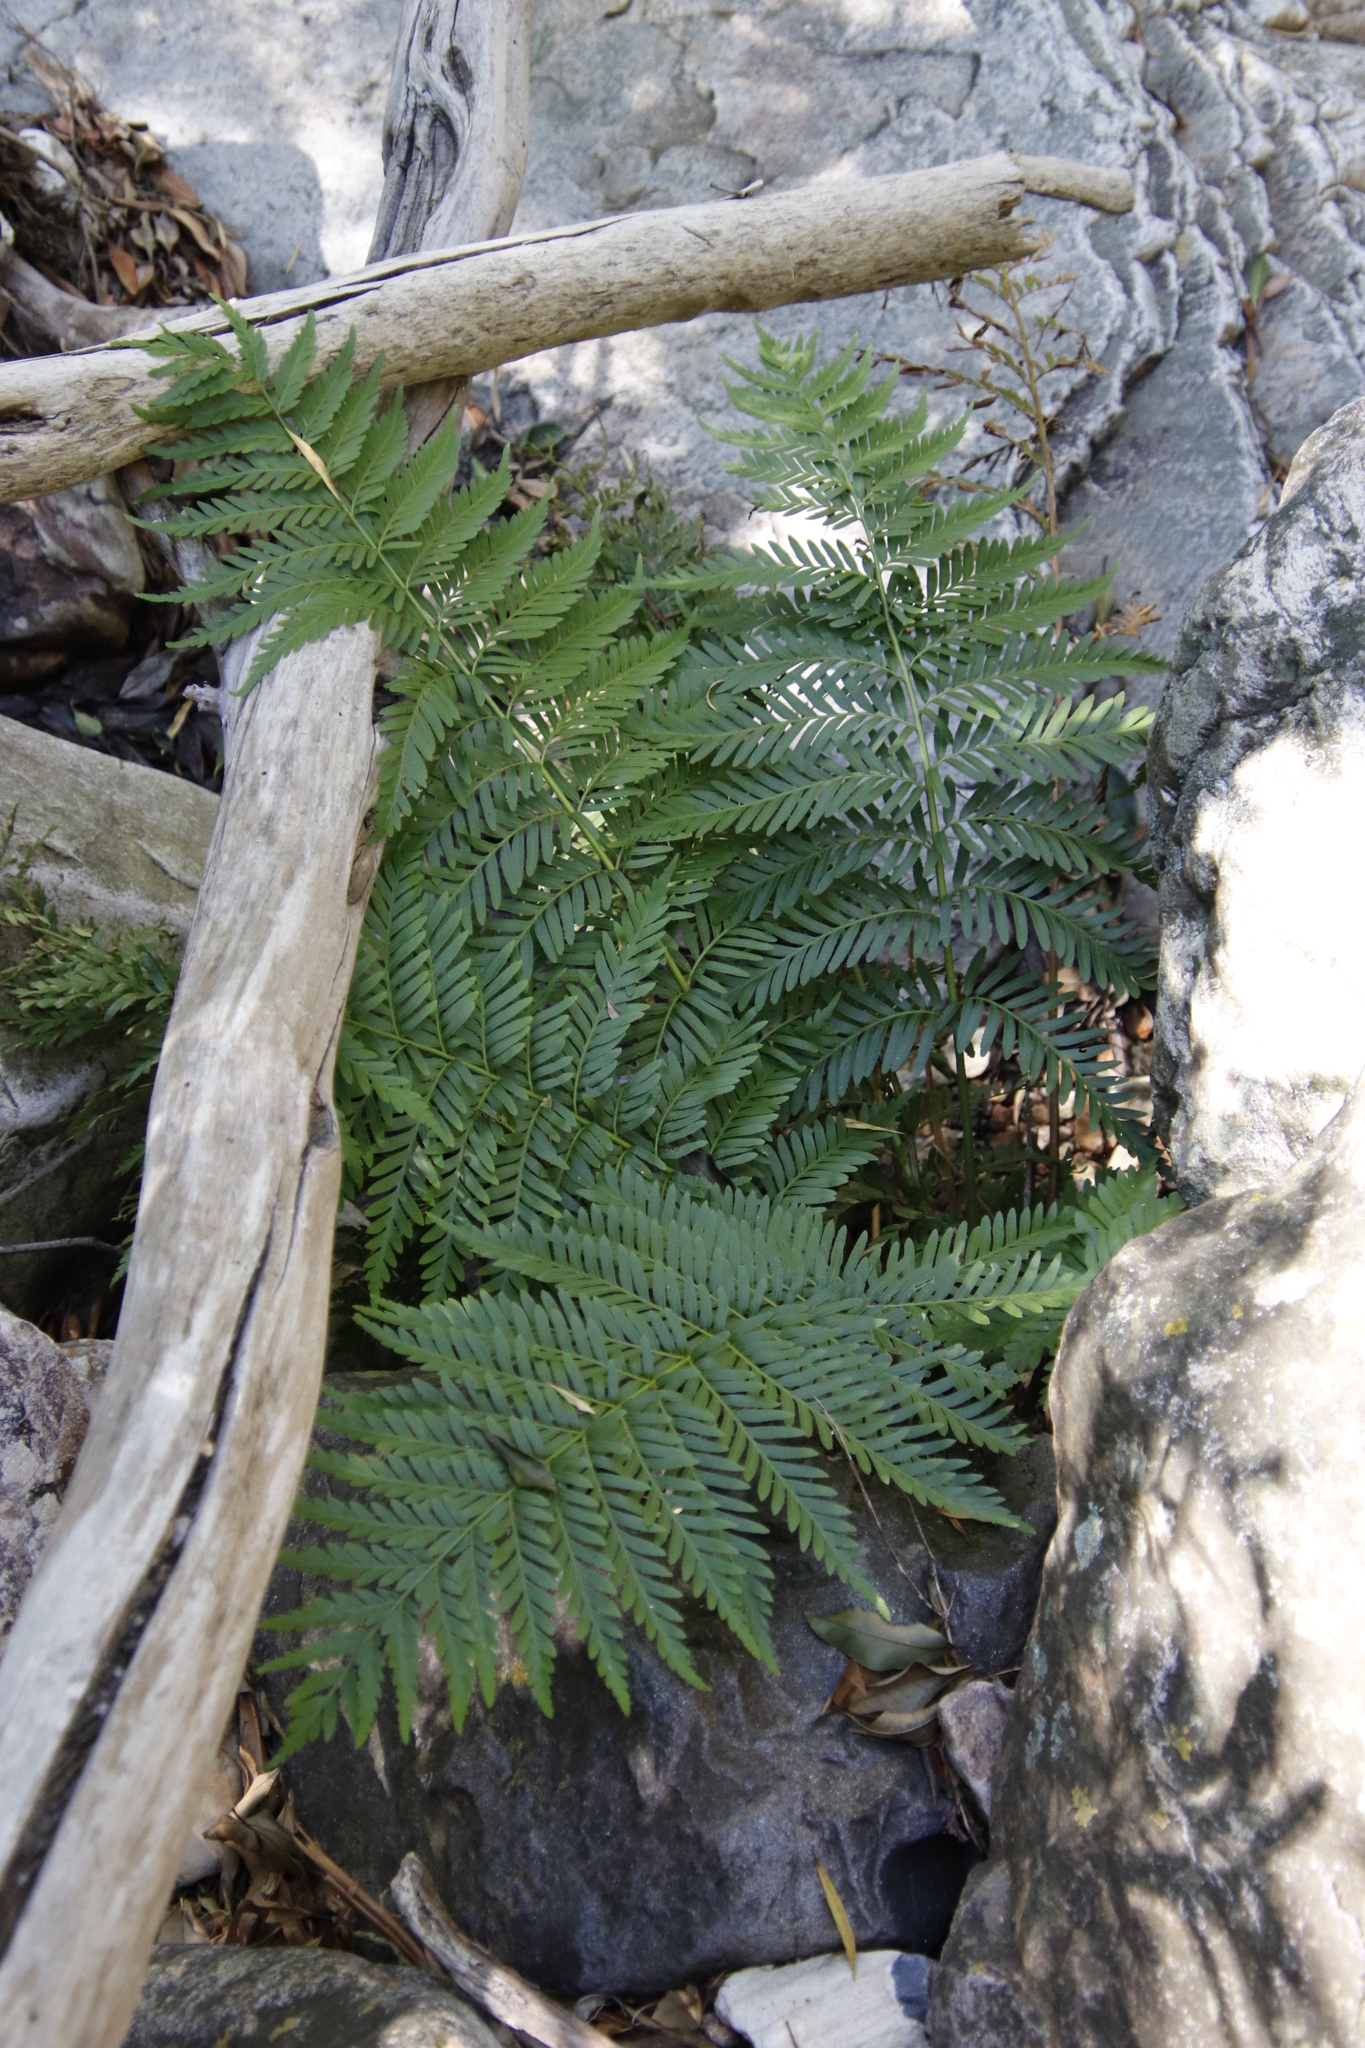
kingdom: Plantae
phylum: Tracheophyta
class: Polypodiopsida
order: Osmundales
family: Osmundaceae
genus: Todea
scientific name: Todea barbara
